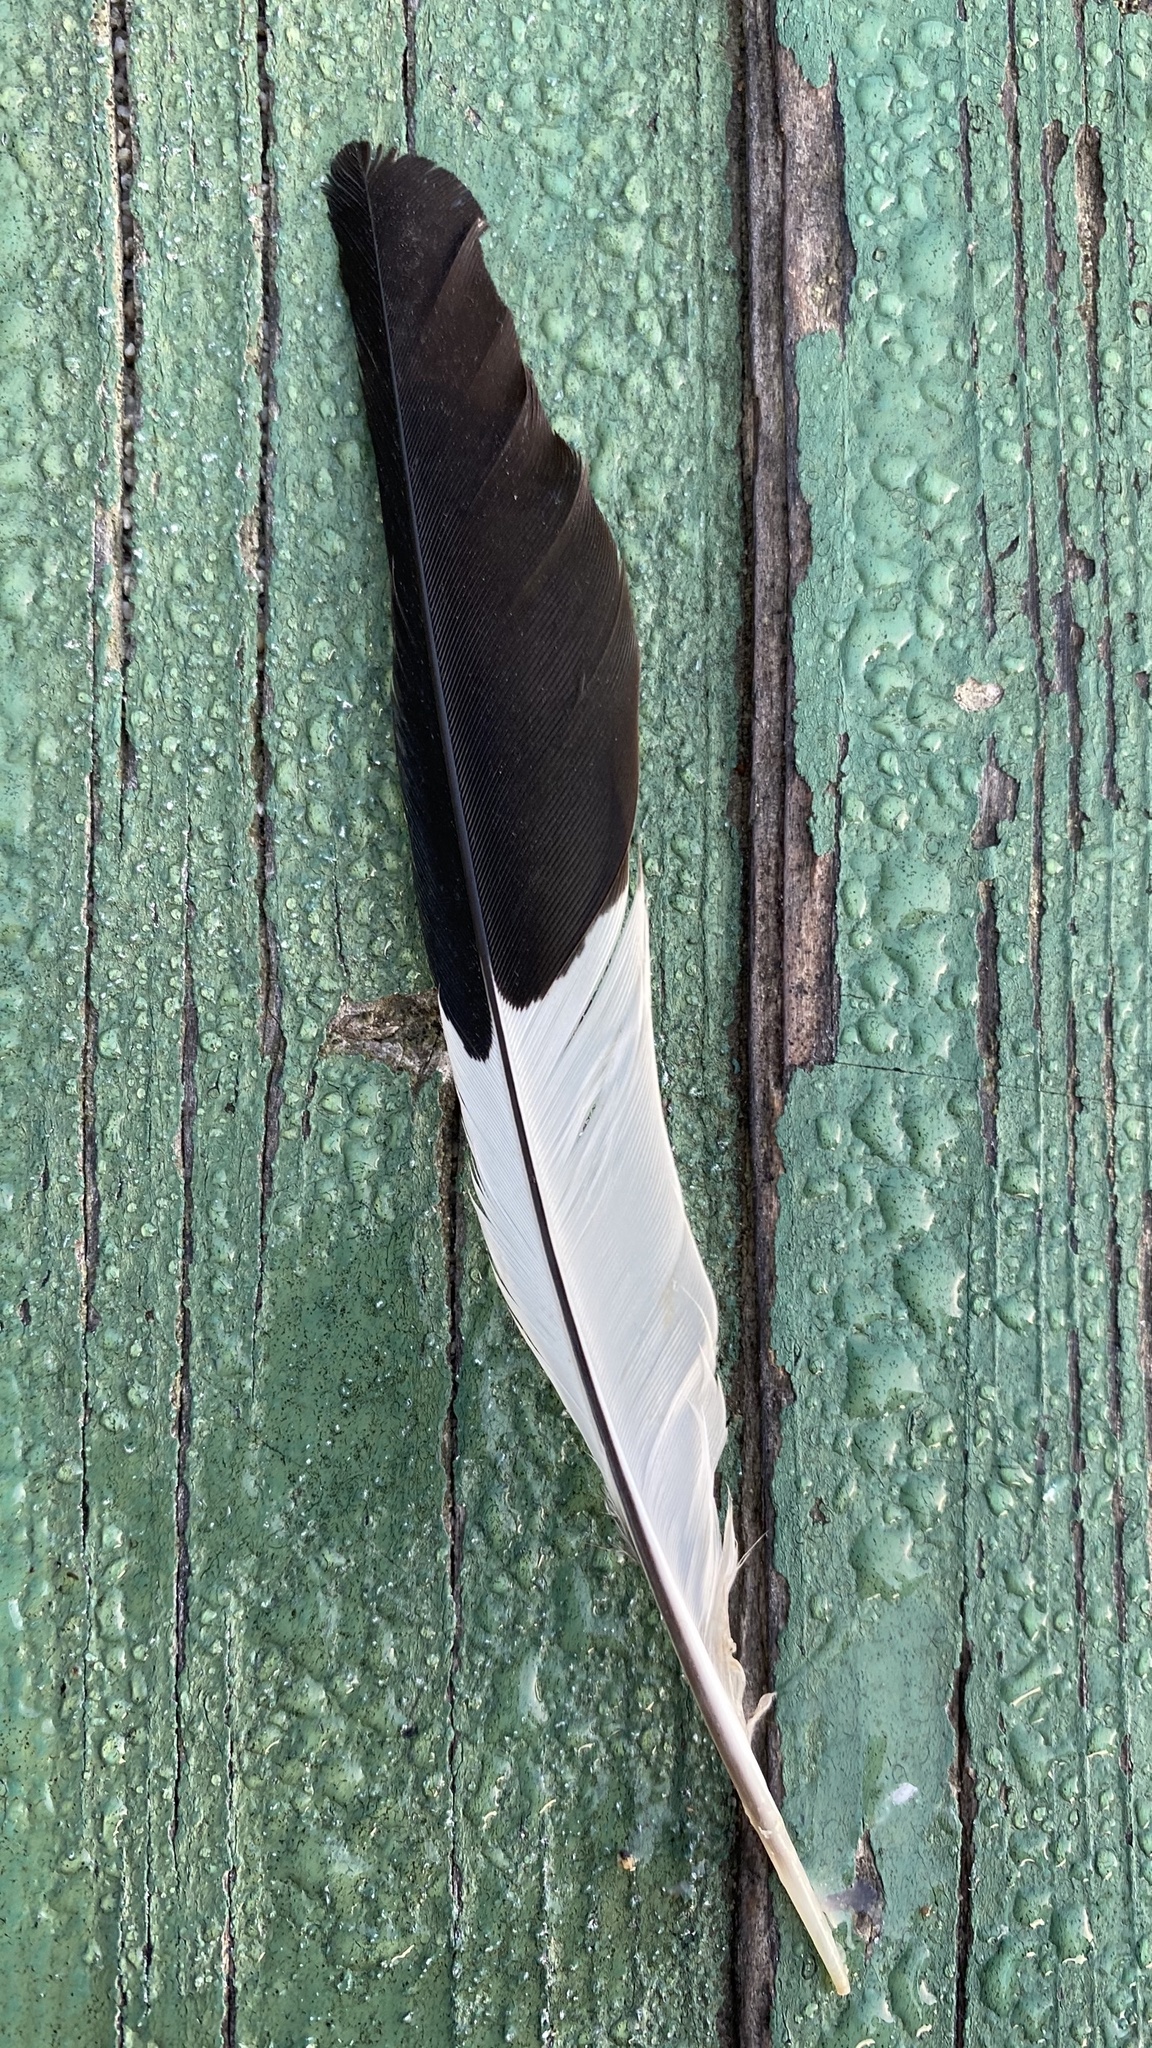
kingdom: Animalia
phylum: Chordata
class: Aves
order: Piciformes
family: Picidae
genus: Melanerpes
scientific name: Melanerpes formicivorus
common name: Acorn woodpecker
